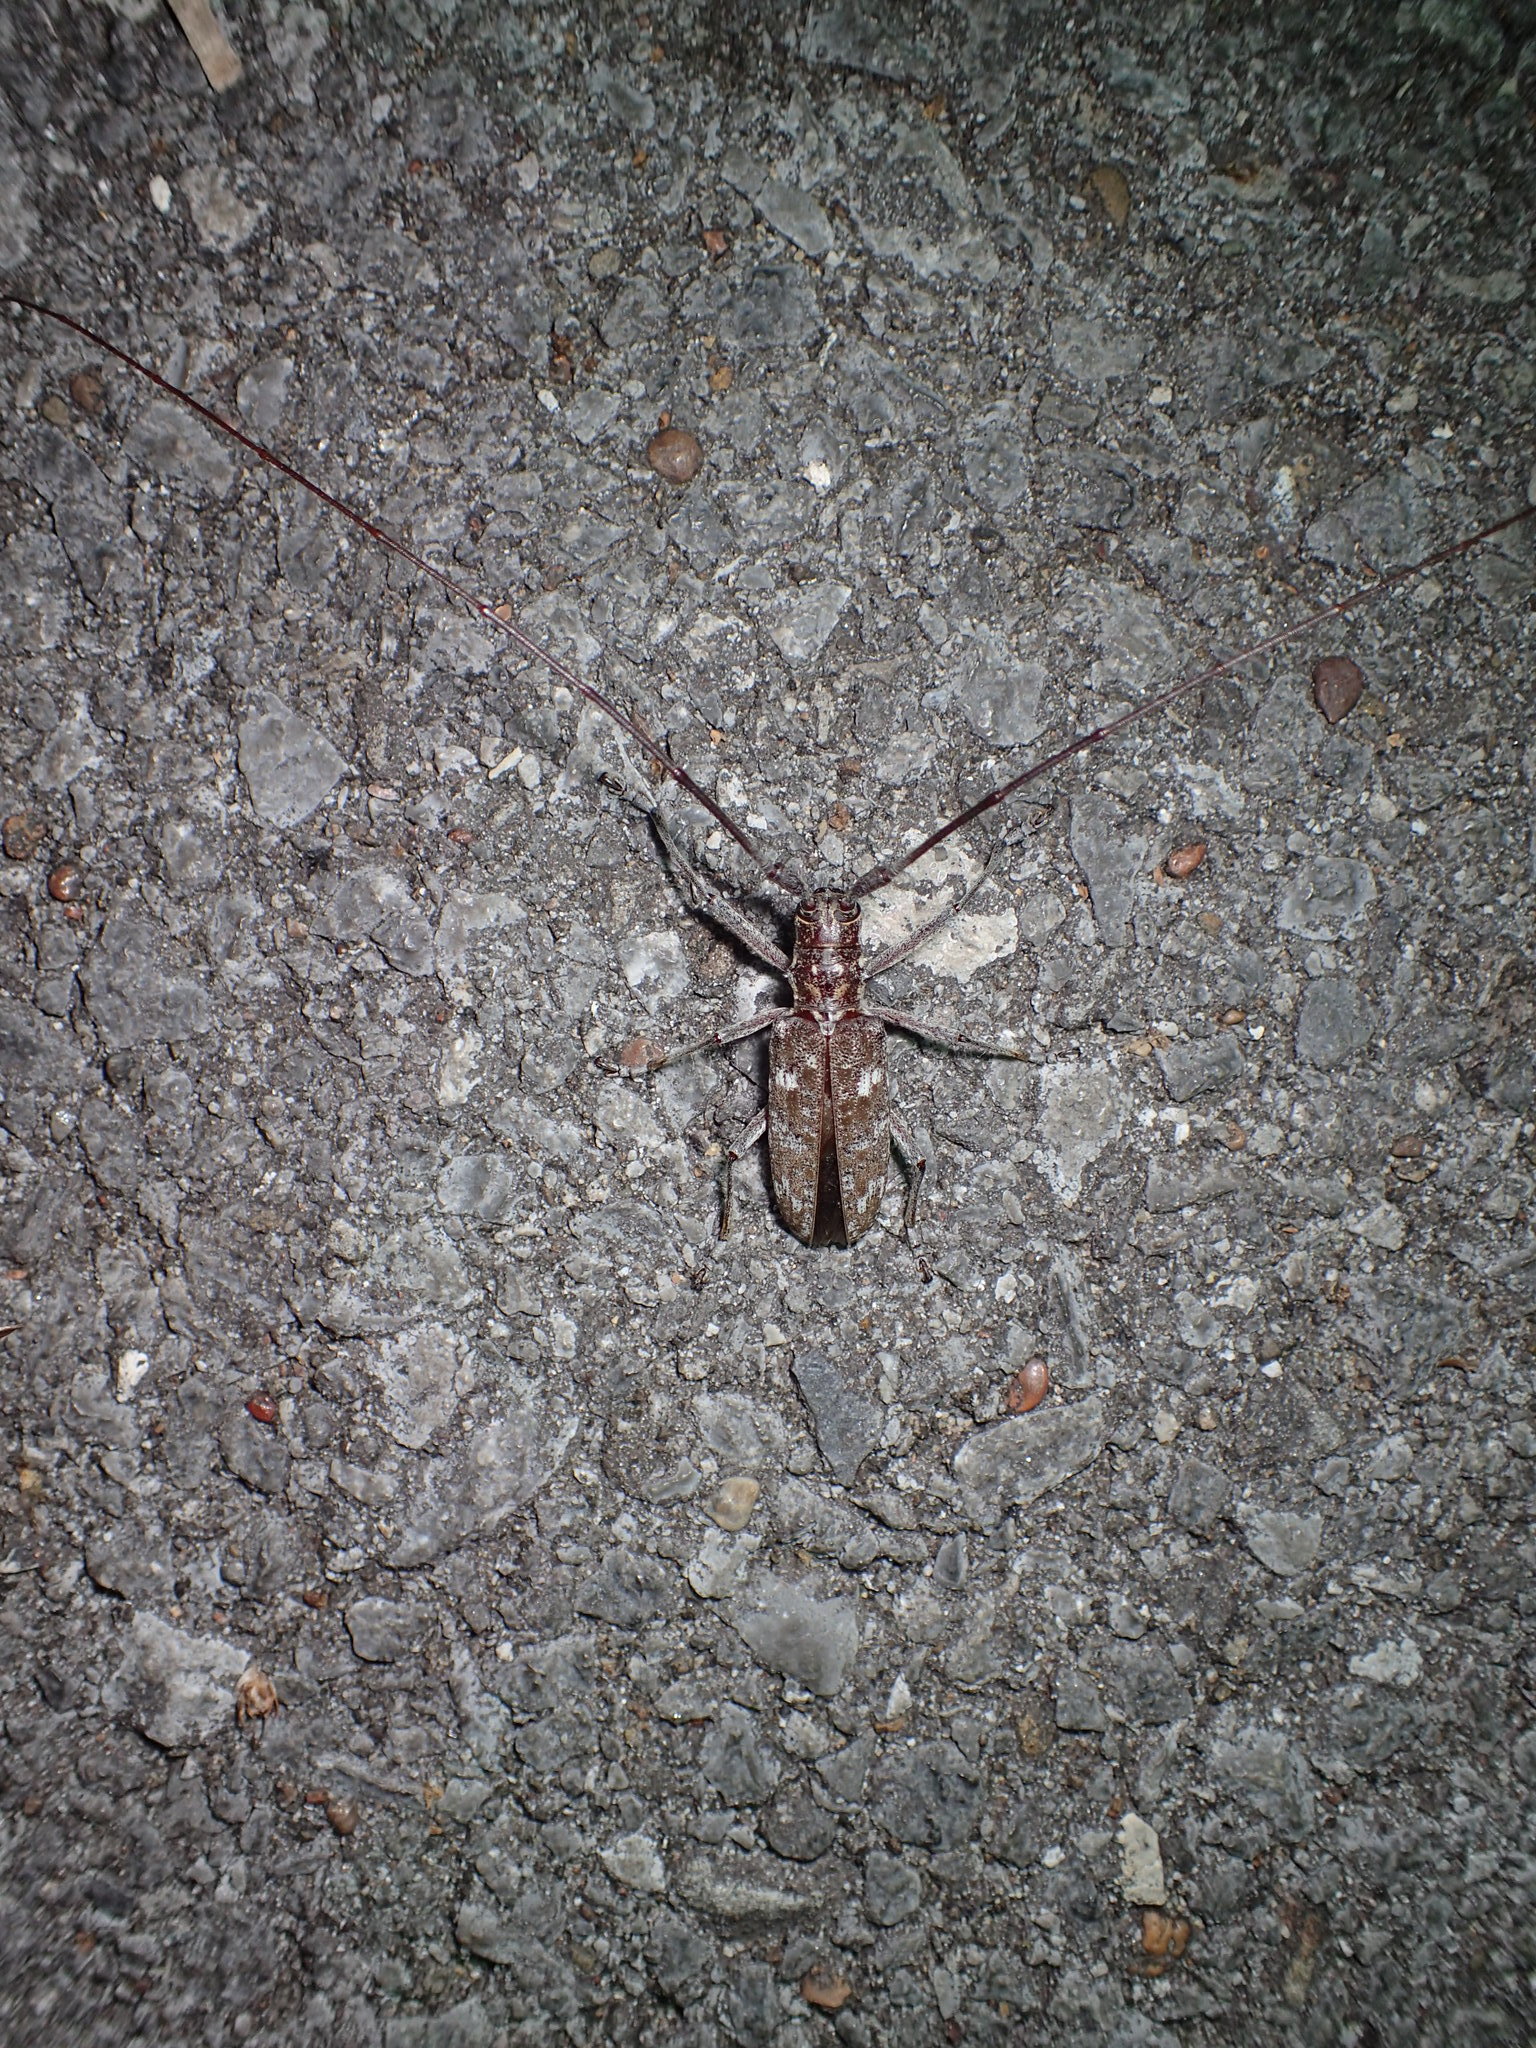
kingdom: Animalia
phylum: Arthropoda
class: Insecta
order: Coleoptera
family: Cerambycidae
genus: Monochamus
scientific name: Monochamus carolinensis
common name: Carolina pine sawyer
